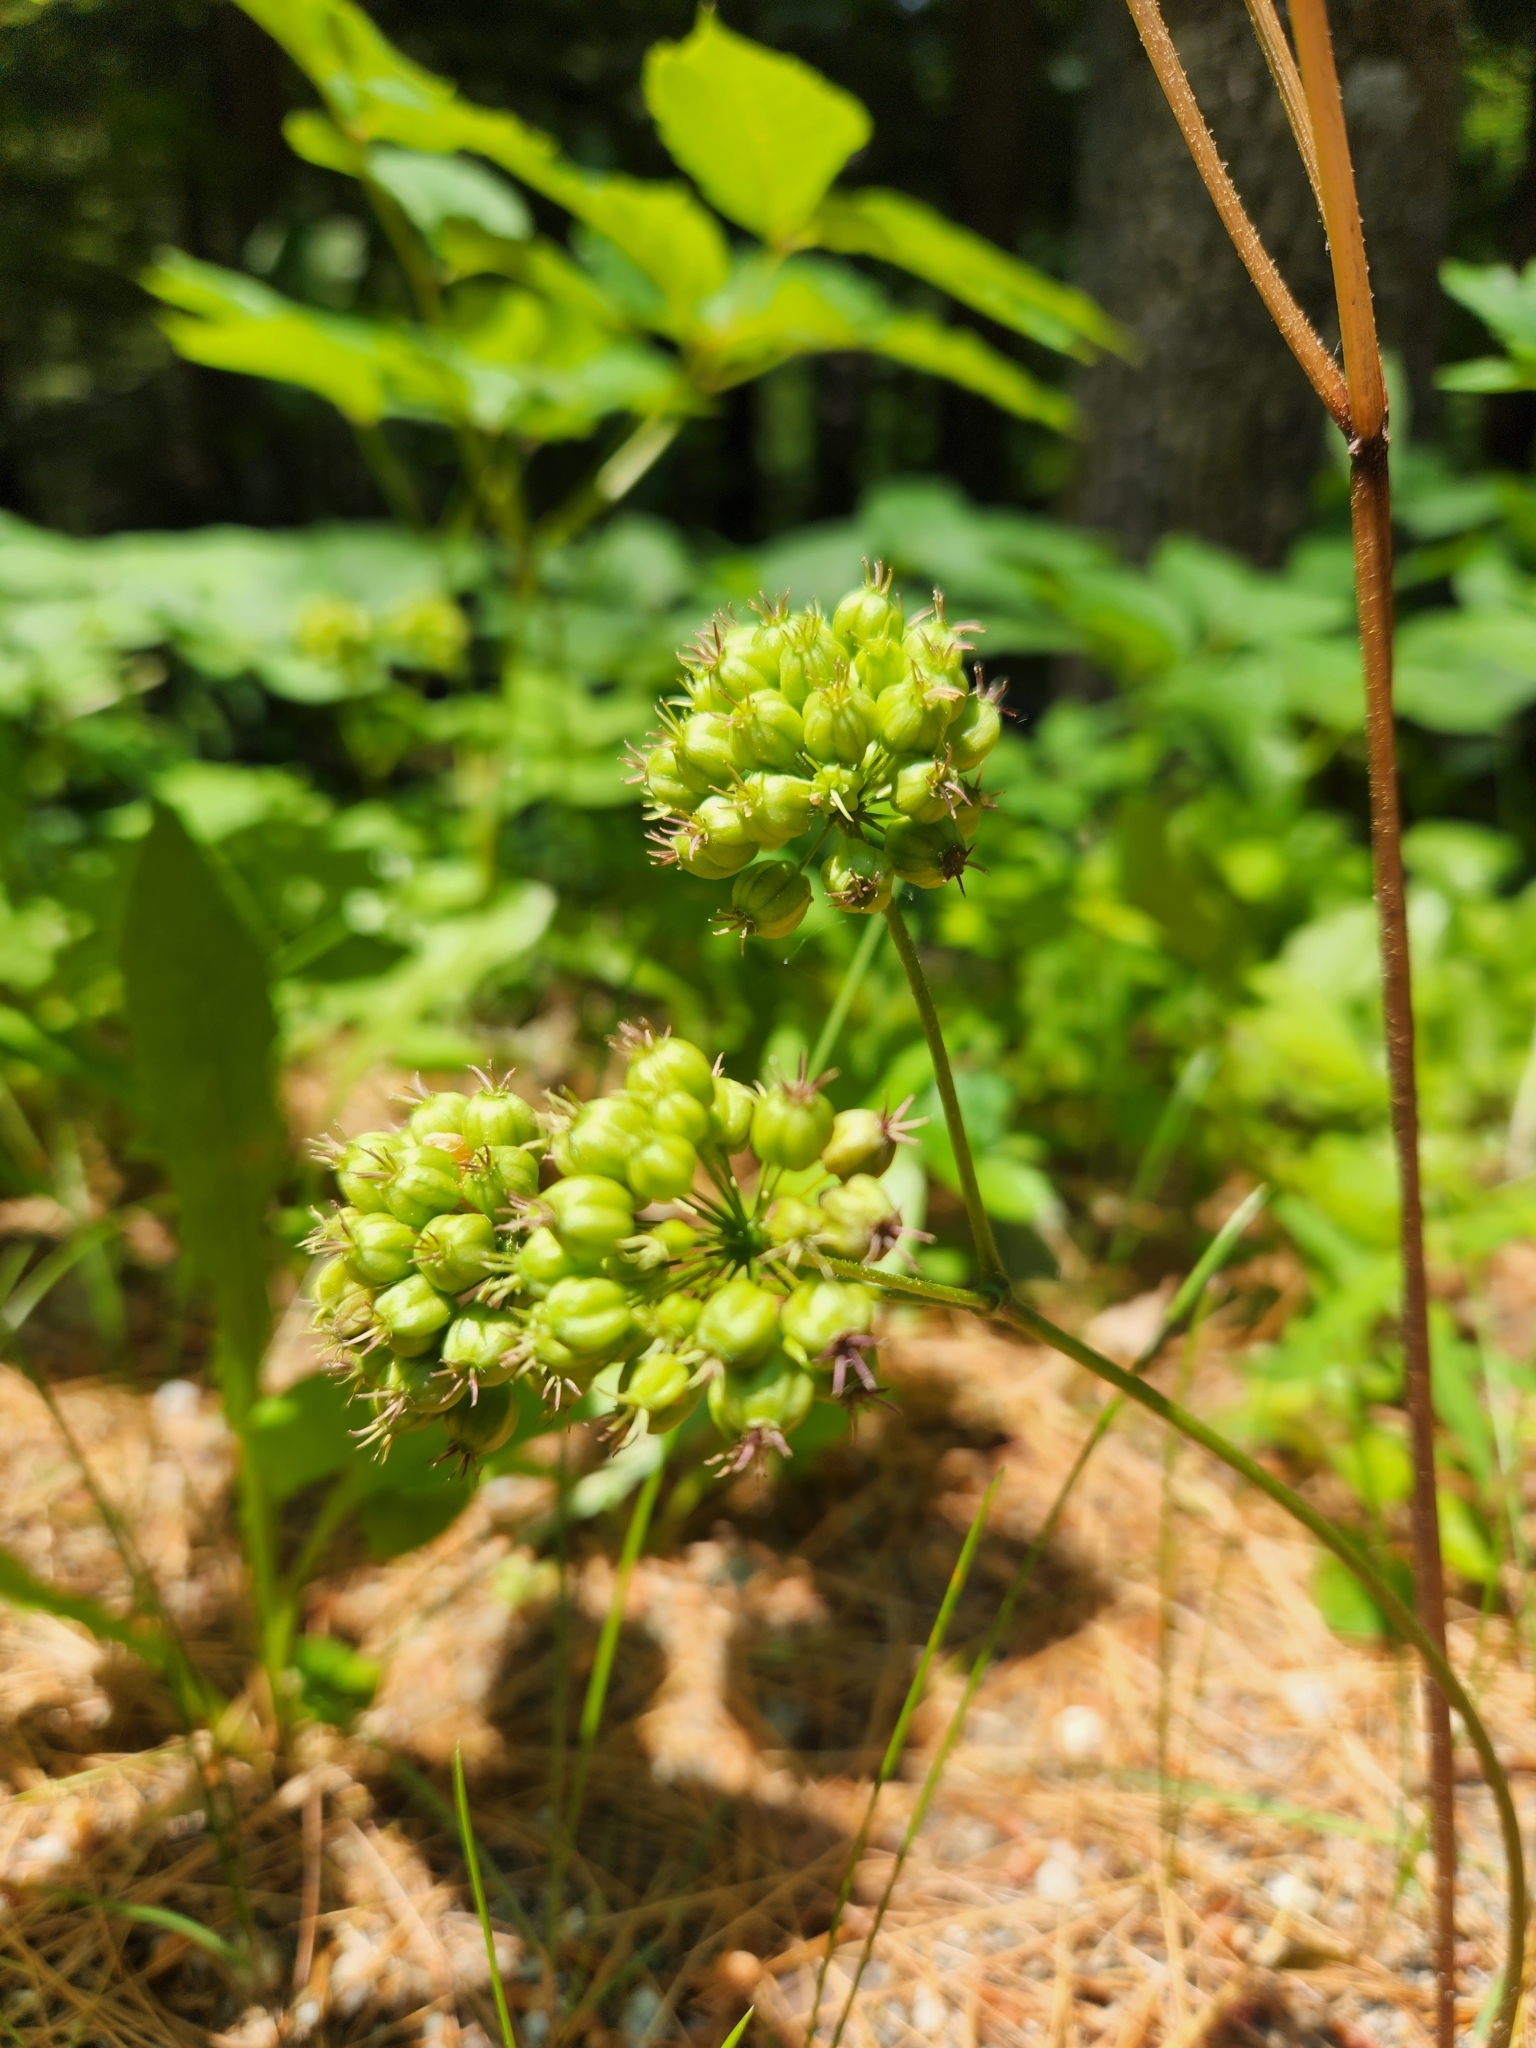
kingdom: Plantae
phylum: Tracheophyta
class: Magnoliopsida
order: Apiales
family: Araliaceae
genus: Aralia
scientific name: Aralia nudicaulis
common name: Wild sarsaparilla
